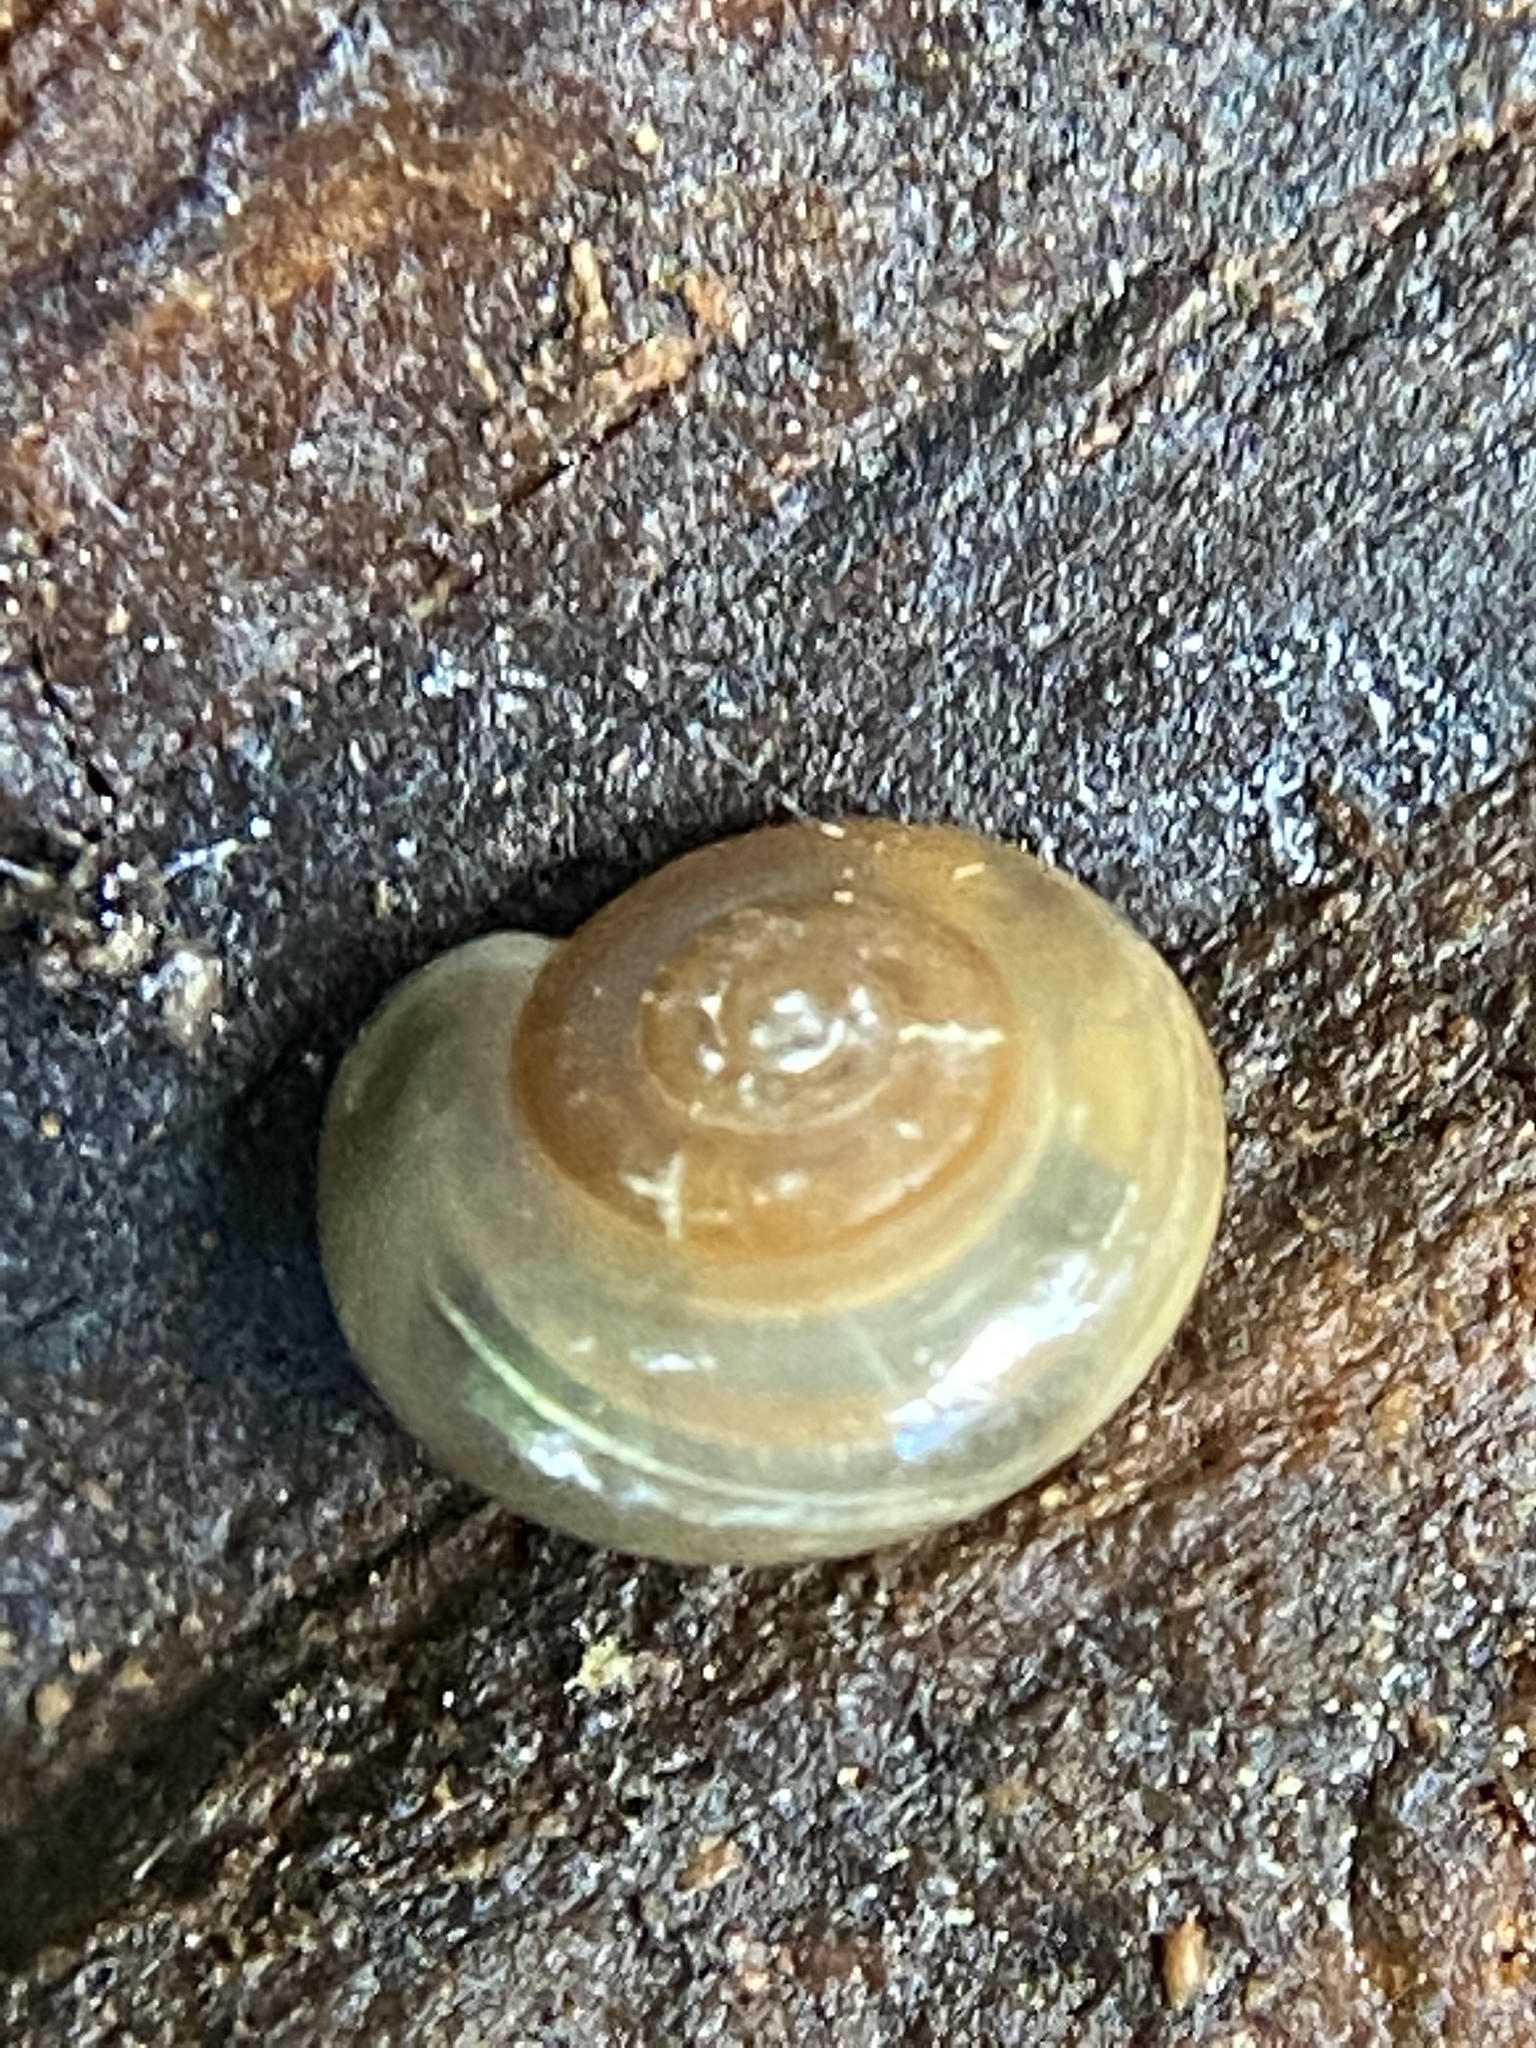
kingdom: Animalia
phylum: Mollusca
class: Gastropoda
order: Stylommatophora
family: Oxychilidae
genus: Oxychilus
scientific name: Oxychilus draparnaudi
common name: Draparnaud's glass snail
